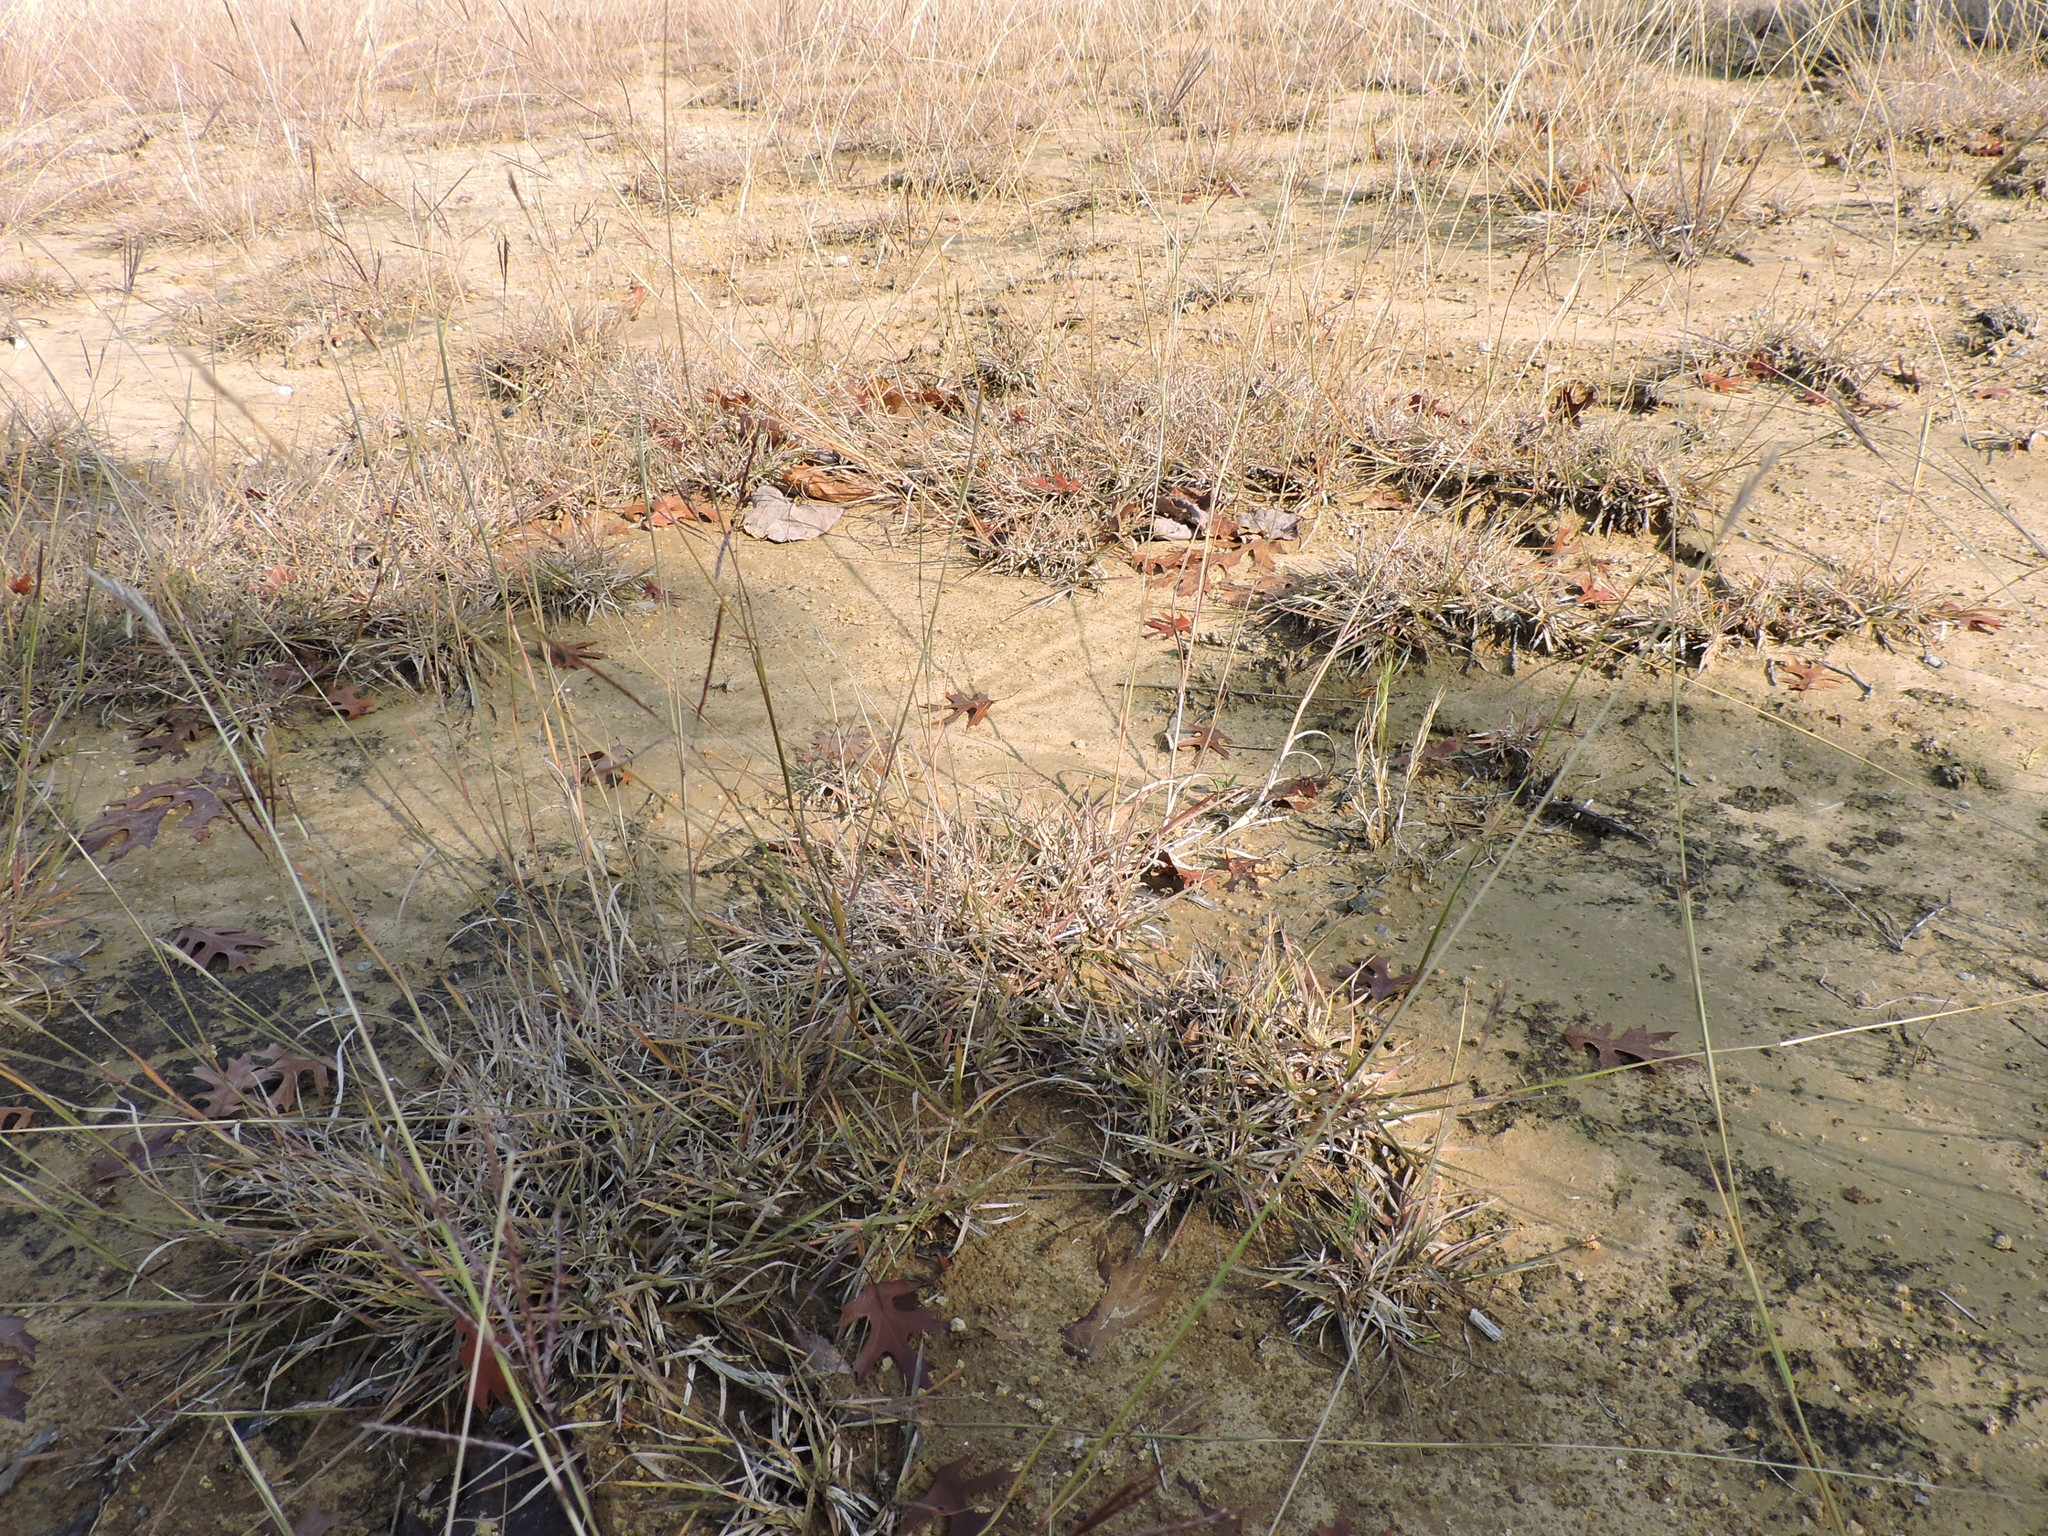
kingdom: Plantae
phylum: Tracheophyta
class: Liliopsida
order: Poales
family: Poaceae
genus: Bothriochloa
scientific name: Bothriochloa ischaemum
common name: Yellow bluestem
